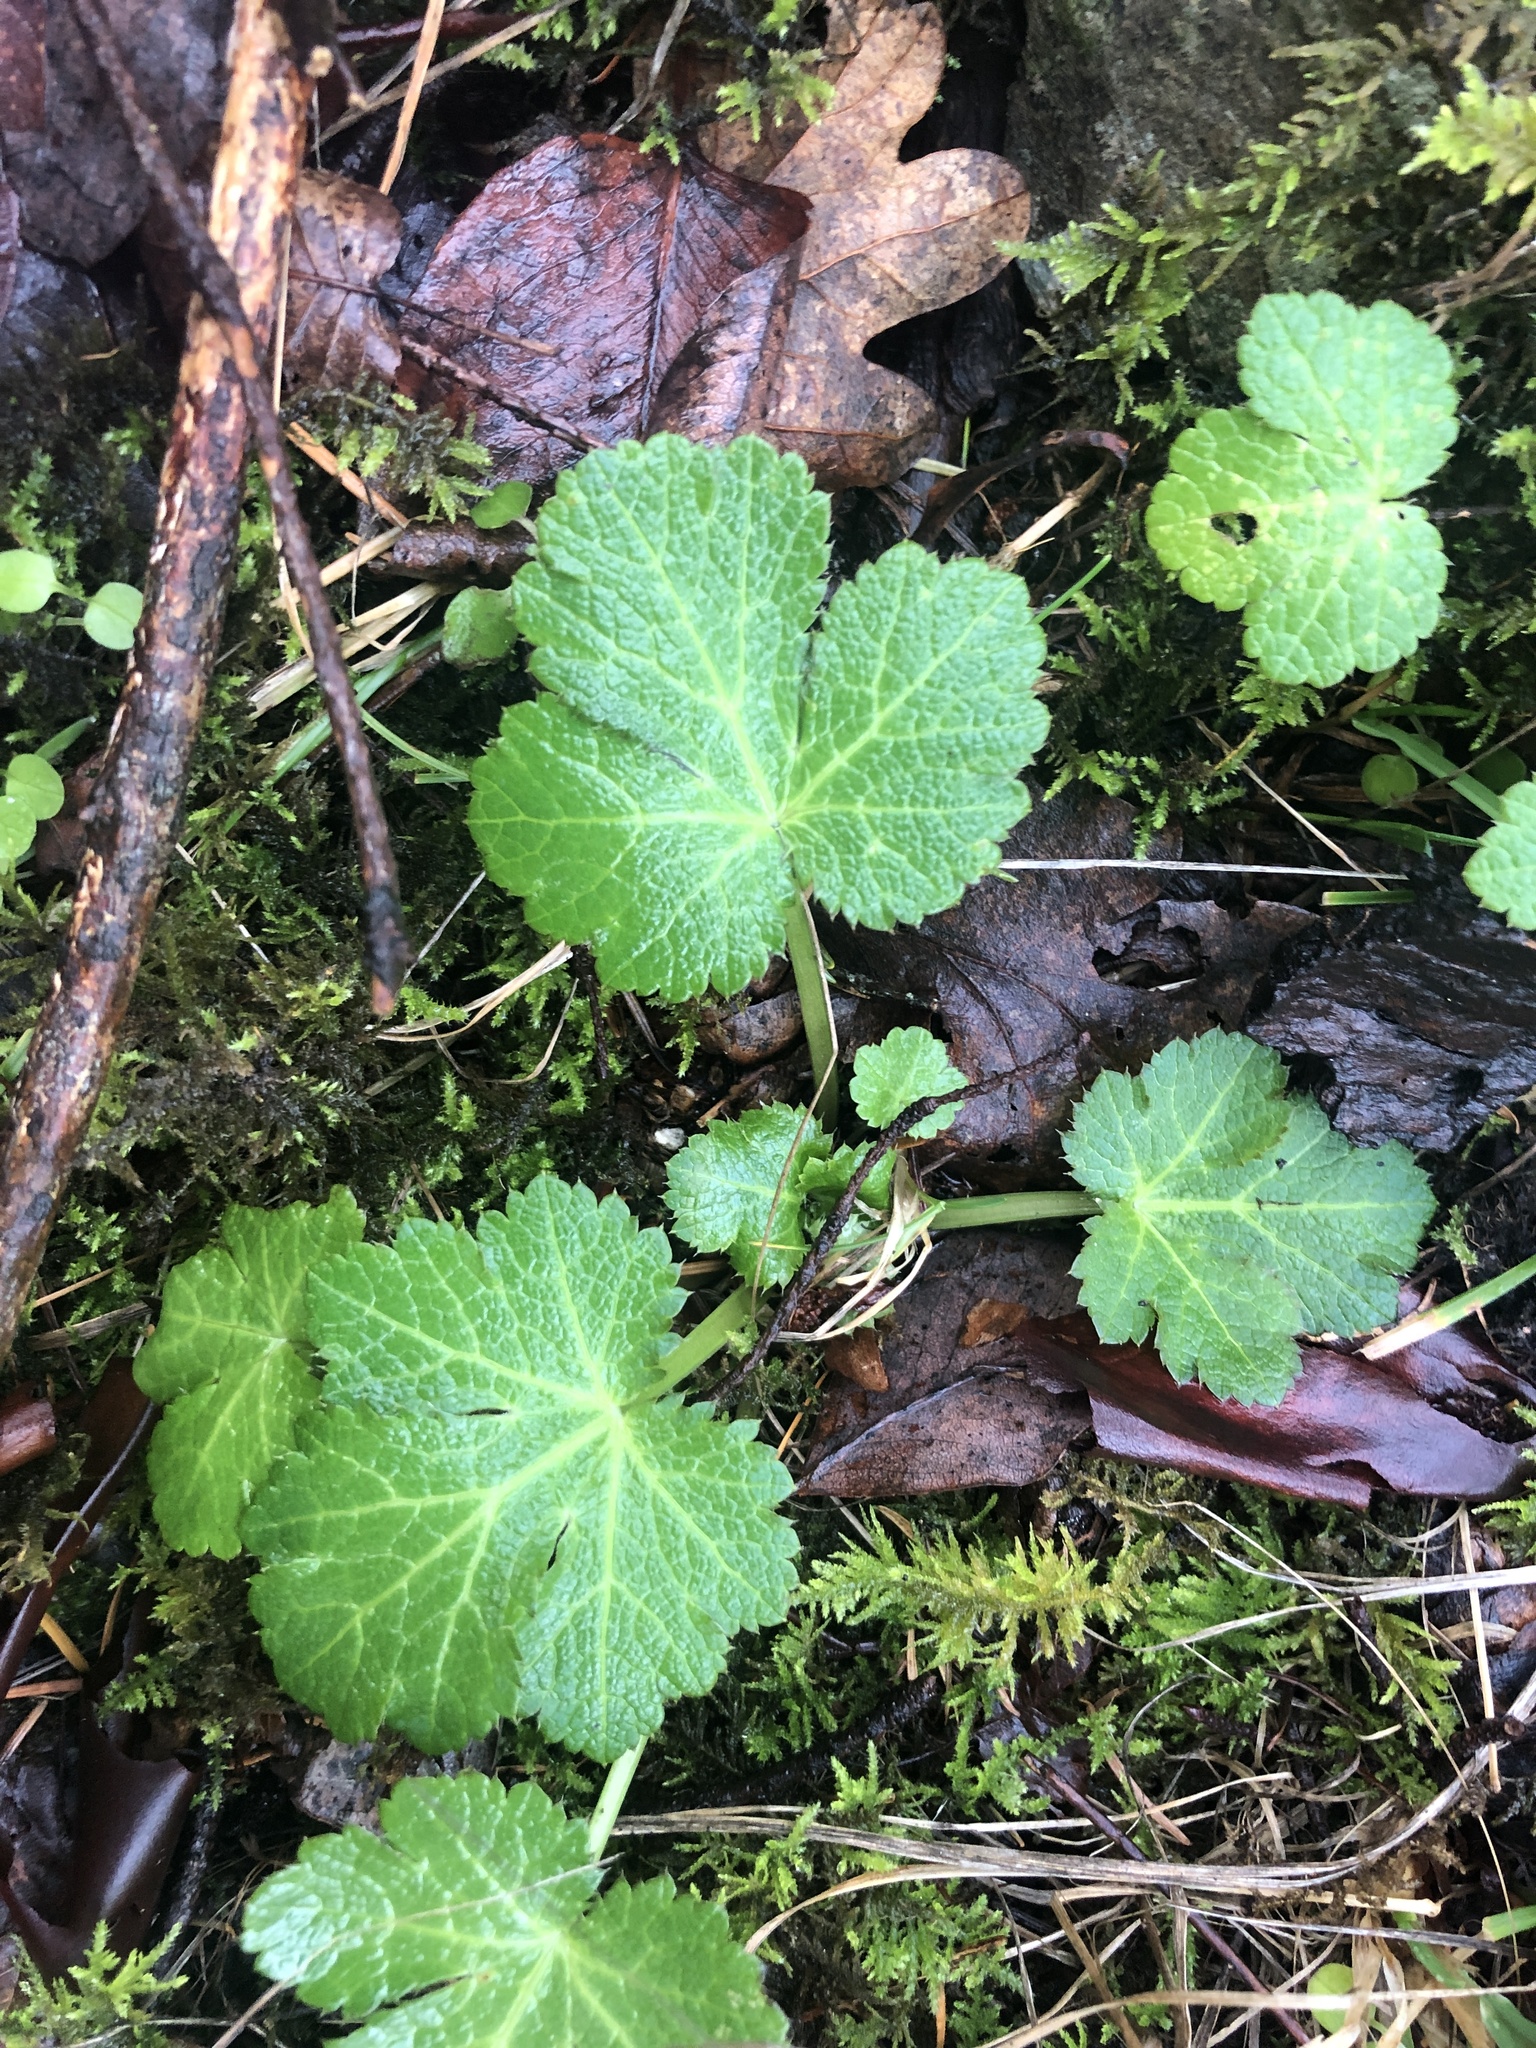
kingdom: Plantae
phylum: Tracheophyta
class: Magnoliopsida
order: Apiales
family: Apiaceae
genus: Sanicula
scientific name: Sanicula crassicaulis
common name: Western snakeroot
